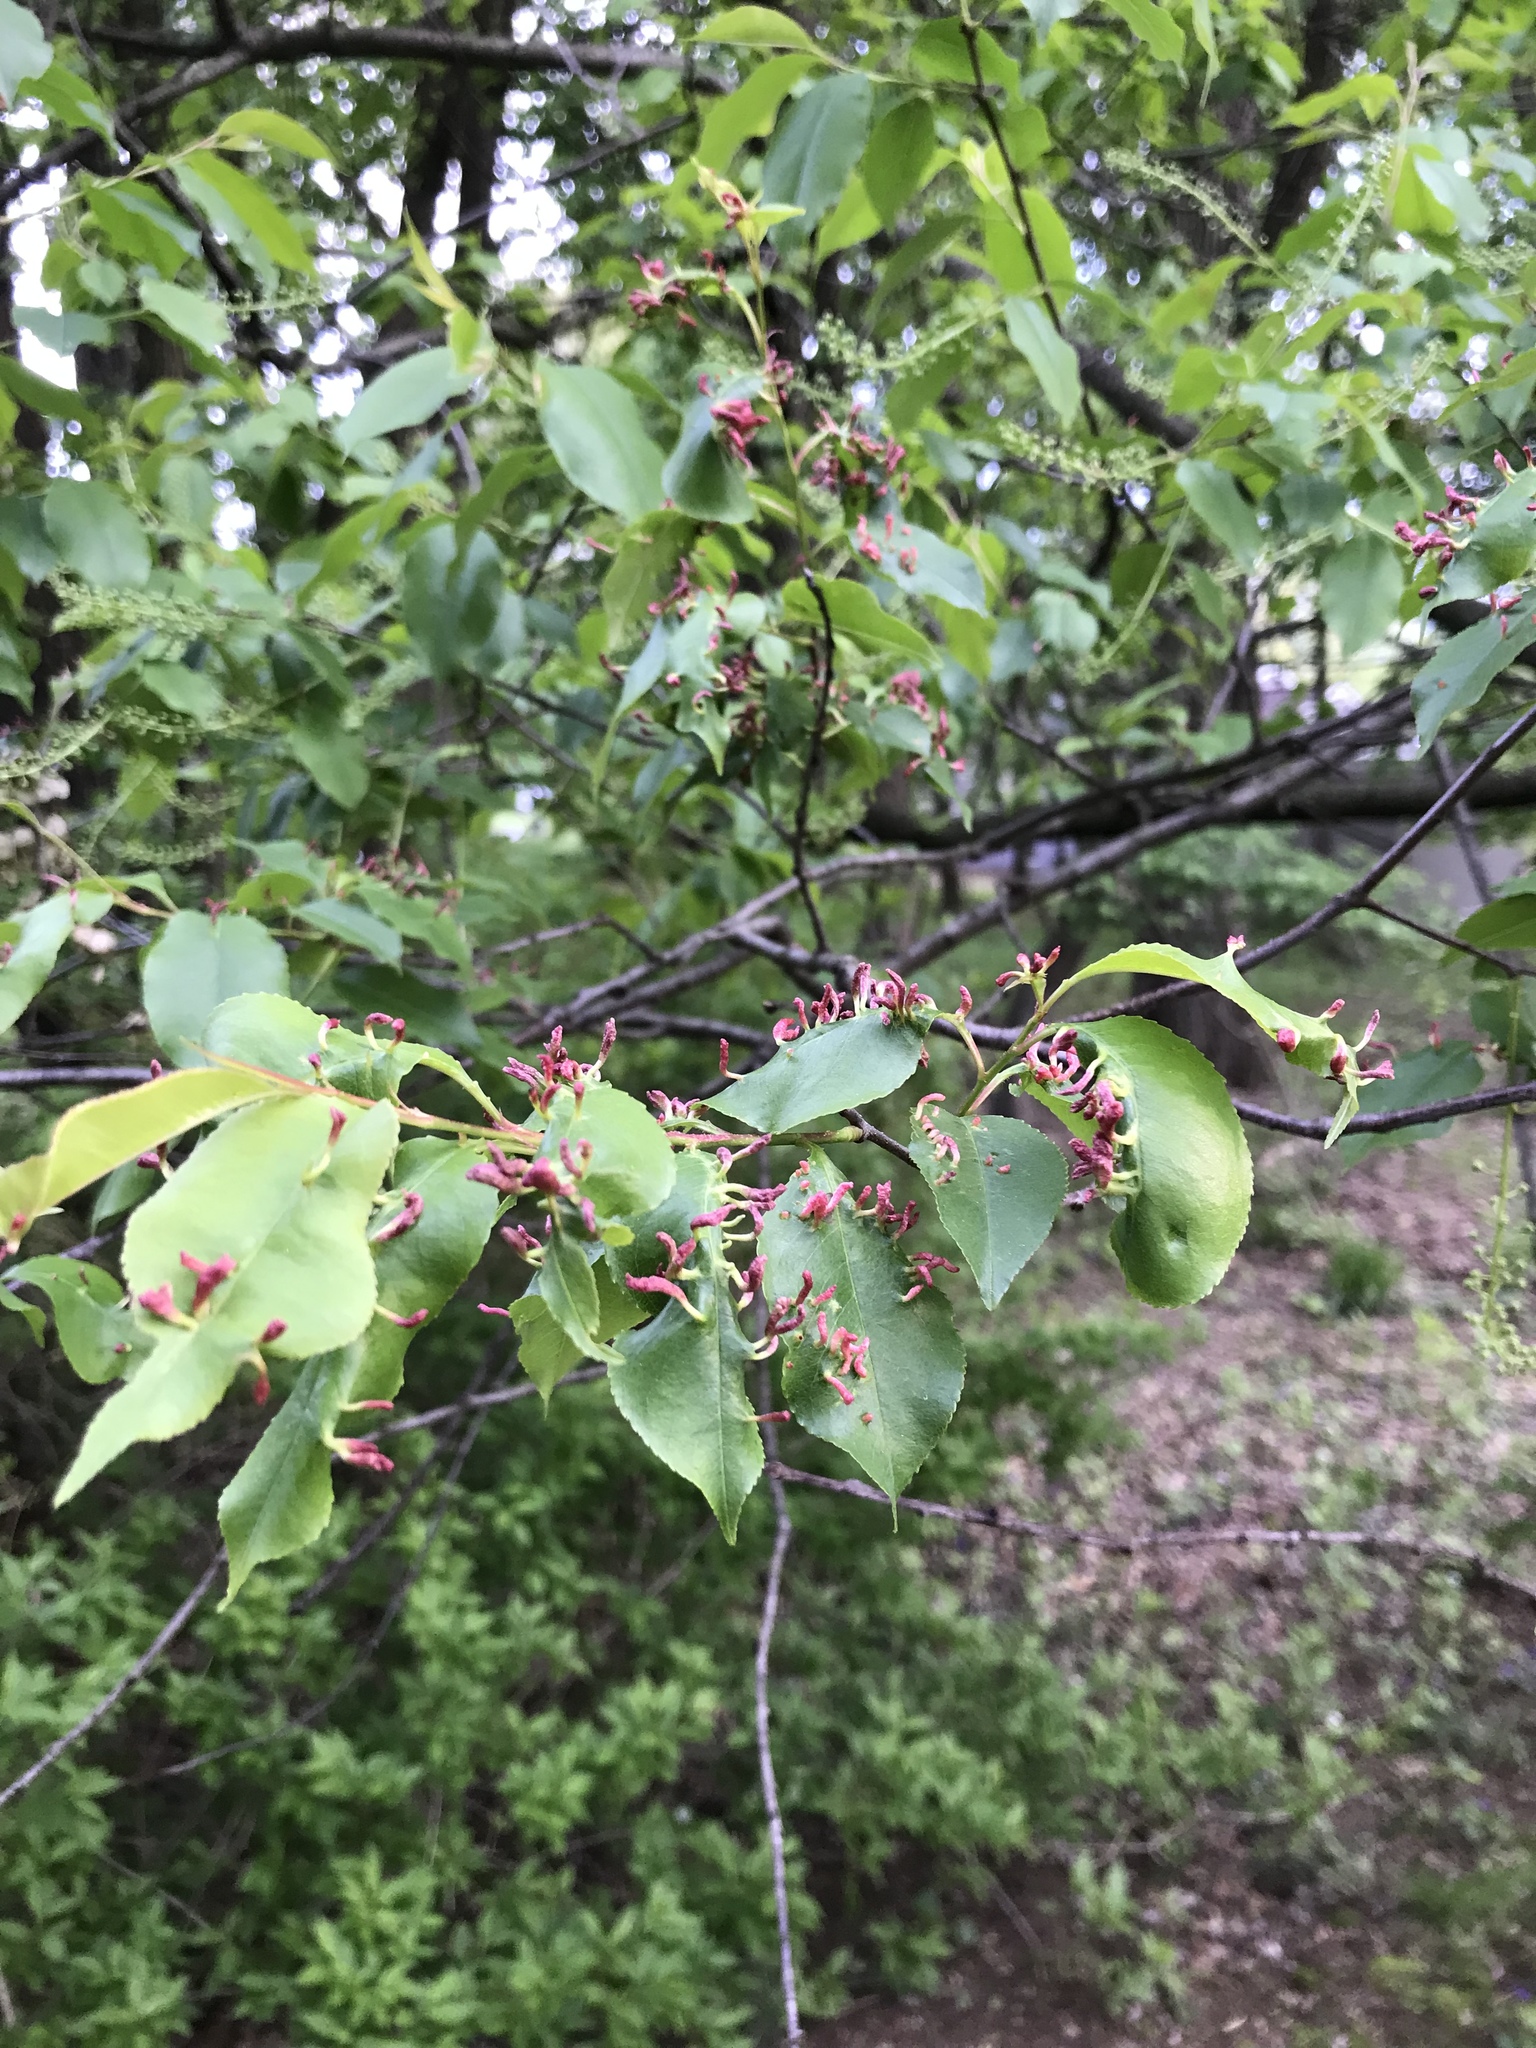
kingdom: Animalia
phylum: Arthropoda
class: Arachnida
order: Trombidiformes
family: Eriophyidae
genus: Eriophyes
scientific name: Eriophyes
